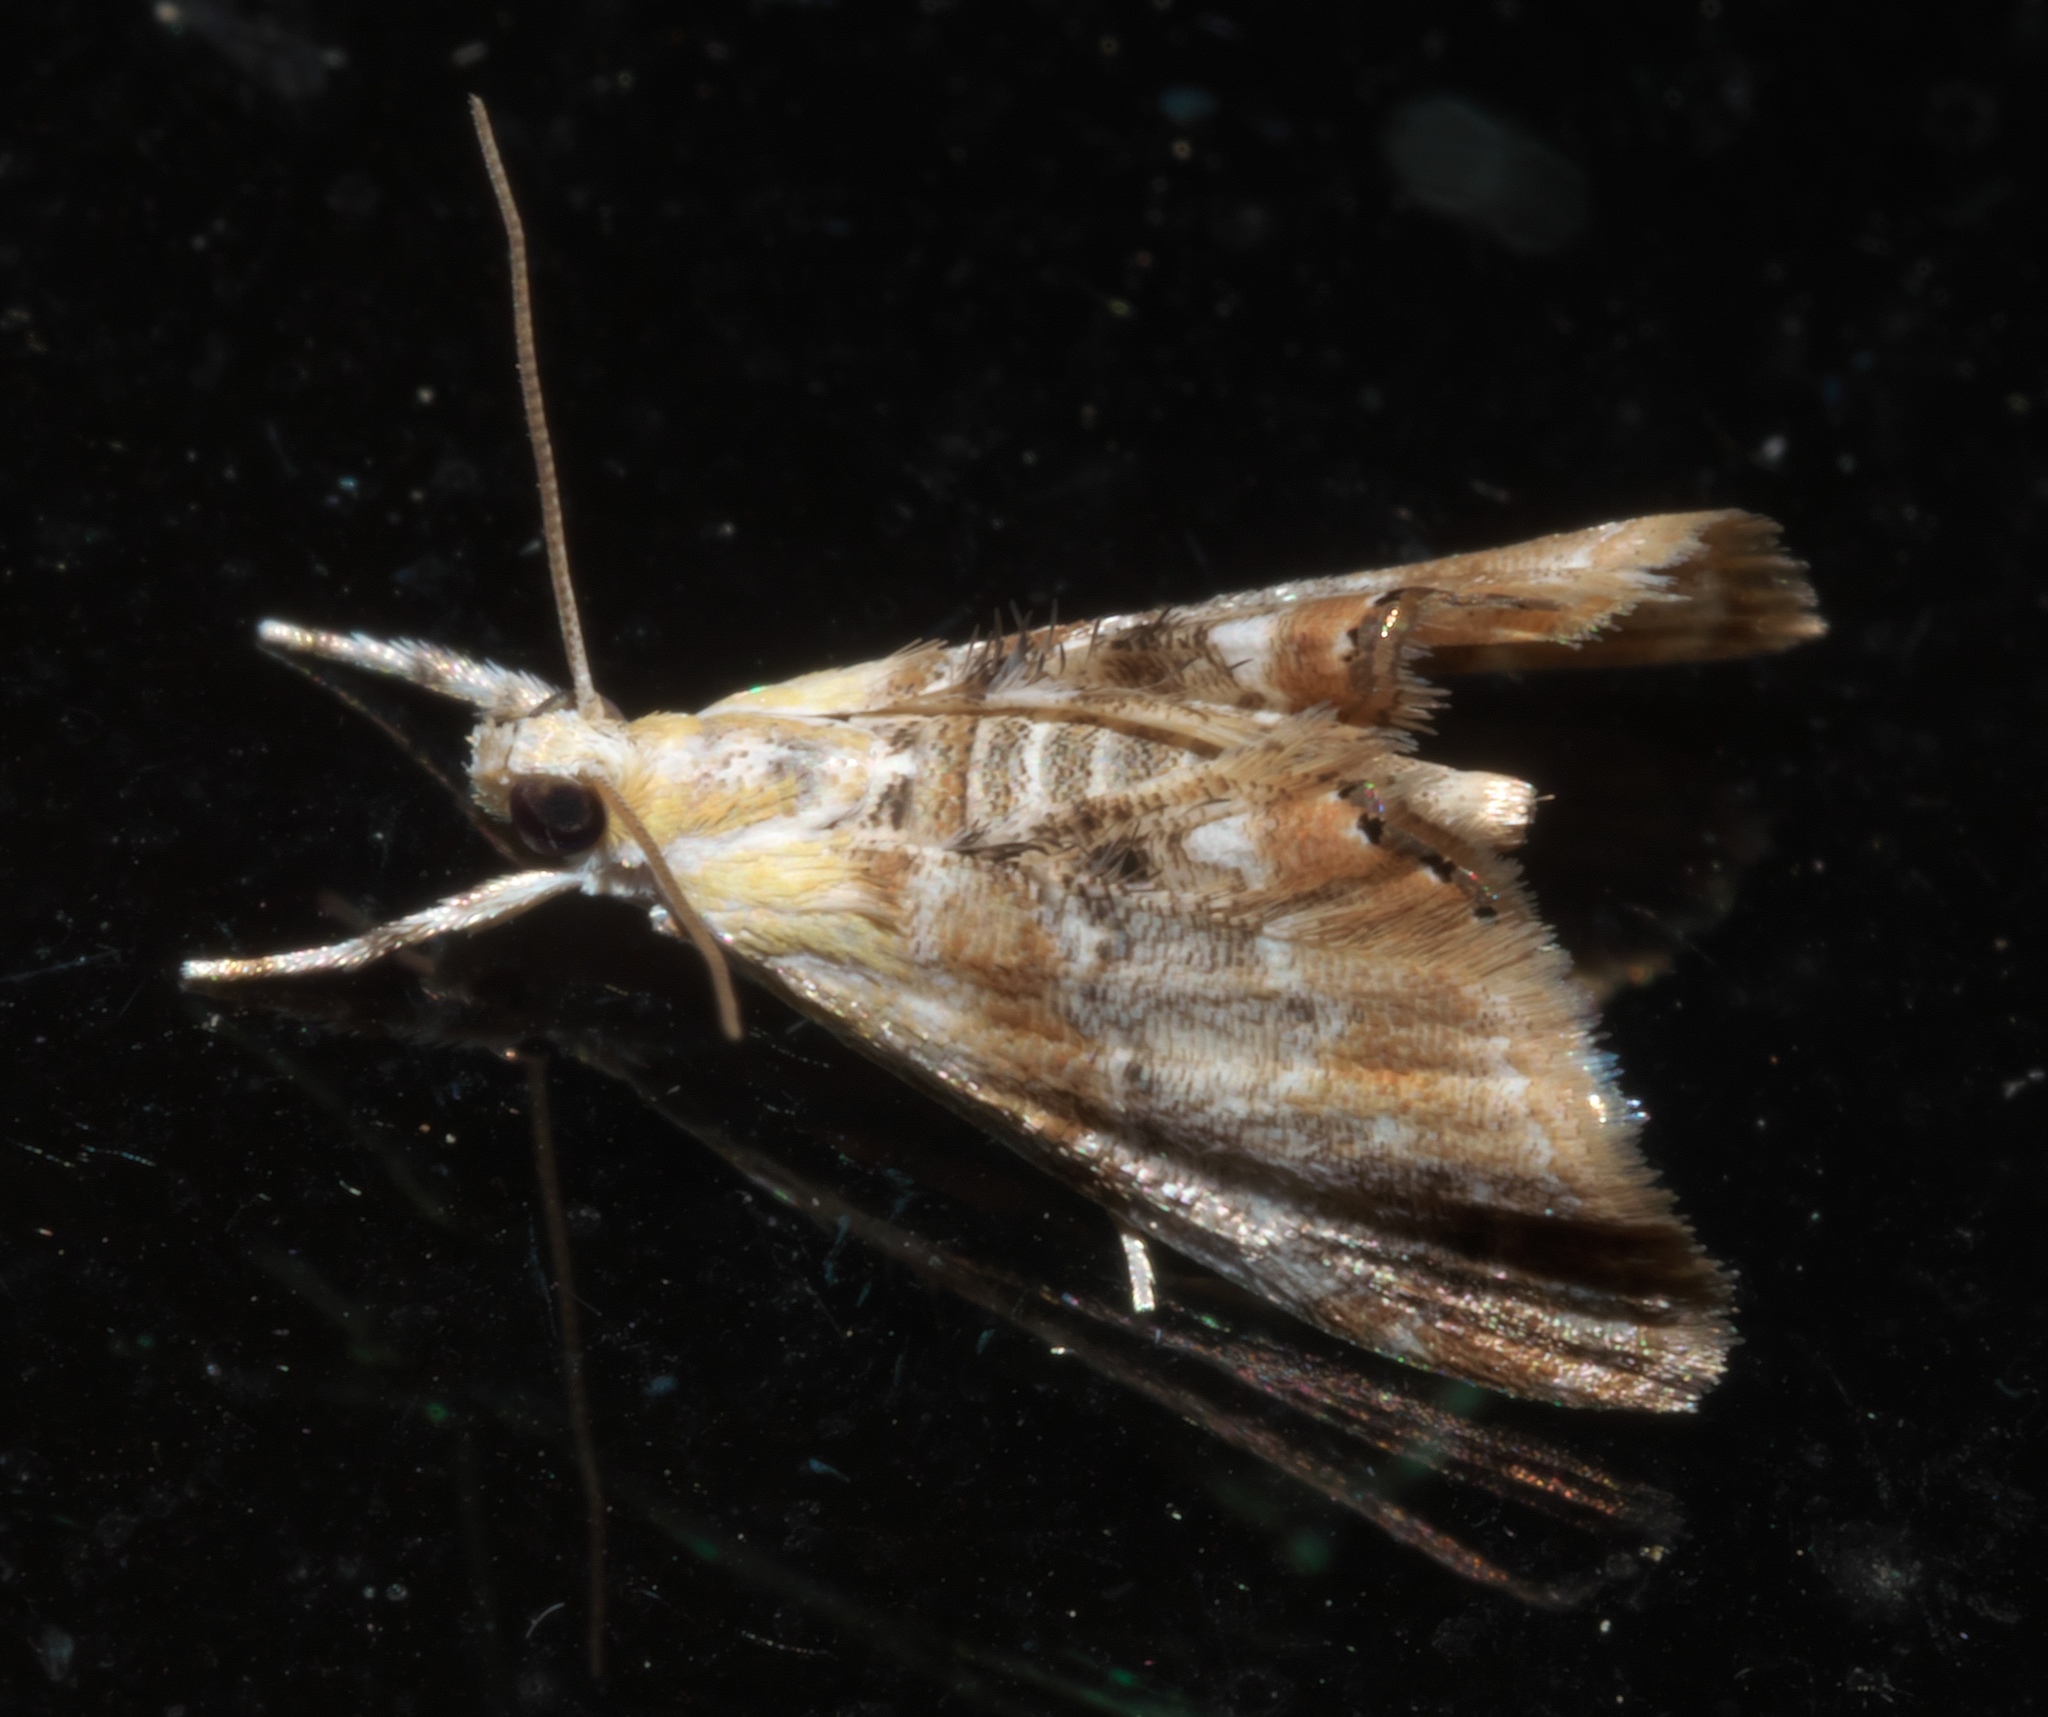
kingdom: Animalia
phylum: Arthropoda
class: Insecta
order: Lepidoptera
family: Crambidae
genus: Dicymolomia
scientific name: Dicymolomia julianalis
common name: Julia's dicymolomia moth
